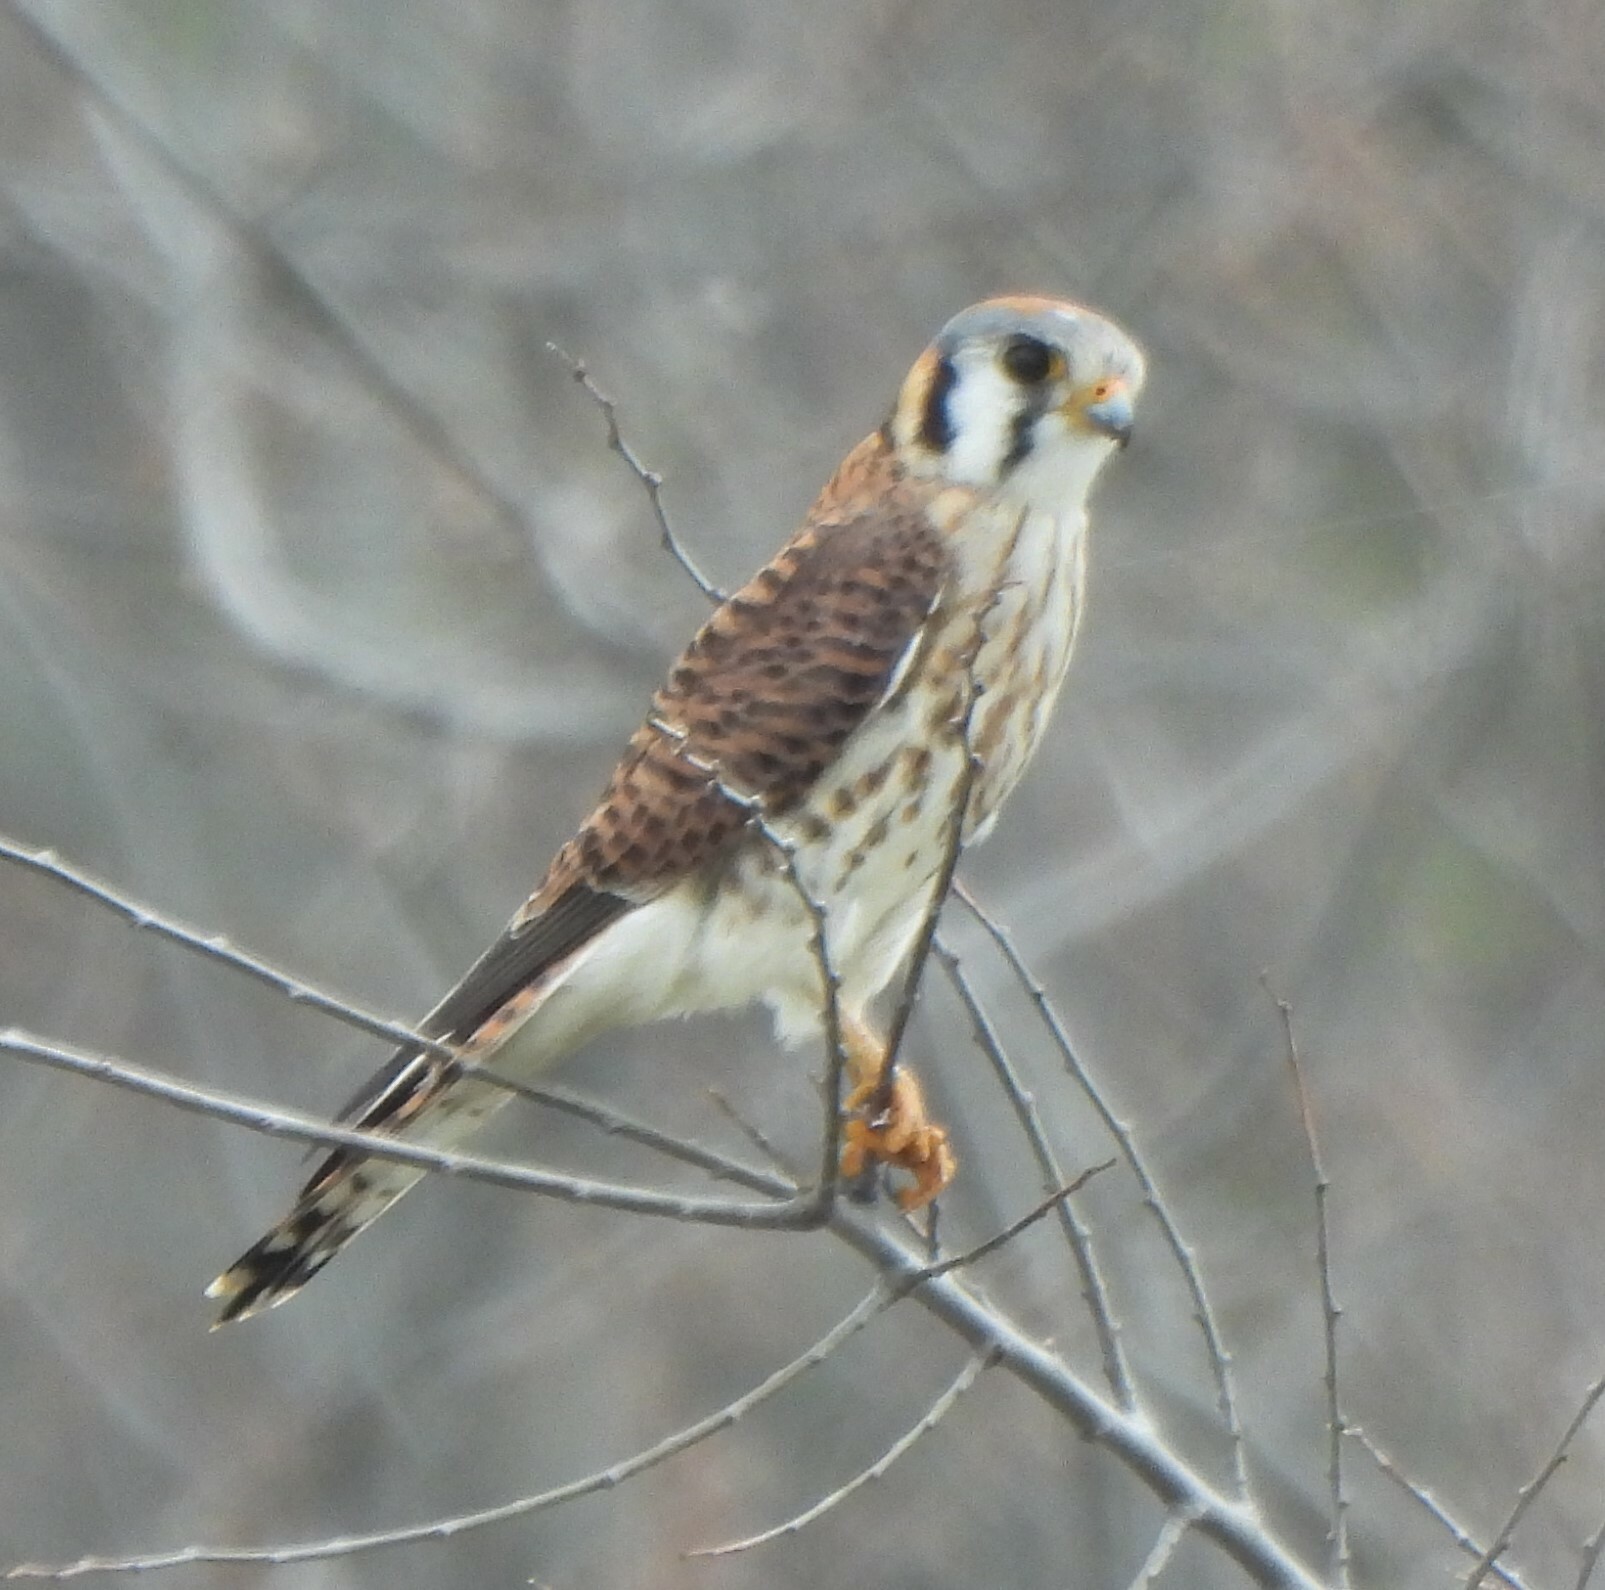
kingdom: Animalia
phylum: Chordata
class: Aves
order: Falconiformes
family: Falconidae
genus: Falco
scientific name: Falco sparverius
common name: American kestrel
